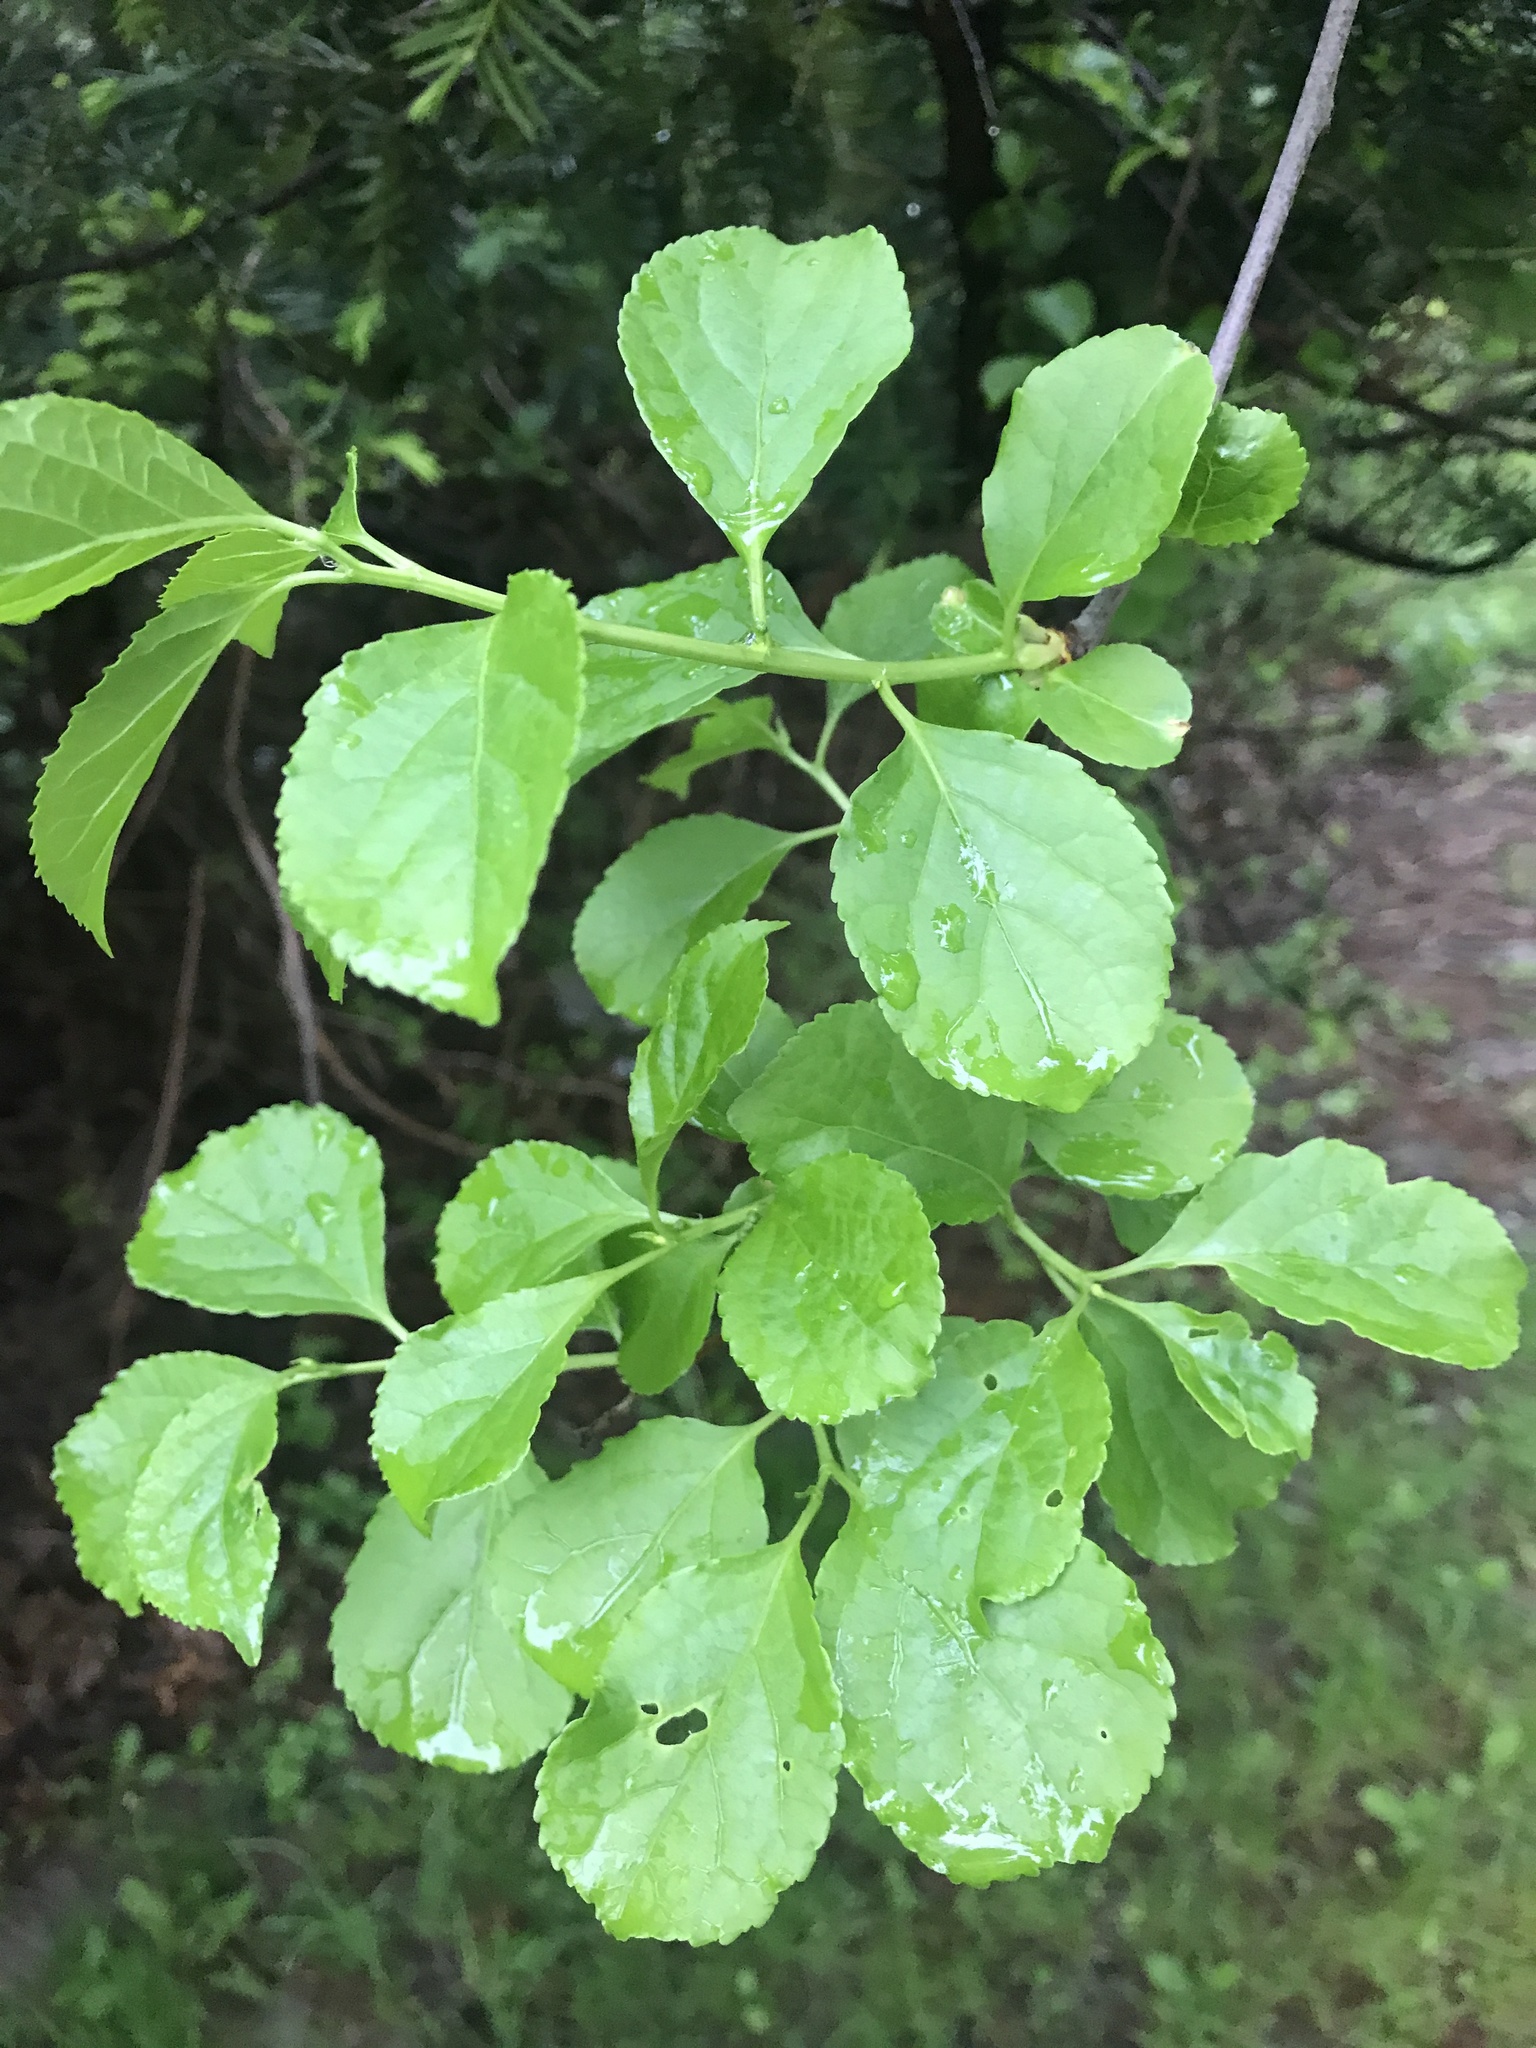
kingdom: Plantae
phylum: Tracheophyta
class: Magnoliopsida
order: Celastrales
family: Celastraceae
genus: Celastrus
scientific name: Celastrus orbiculatus
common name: Oriental bittersweet
